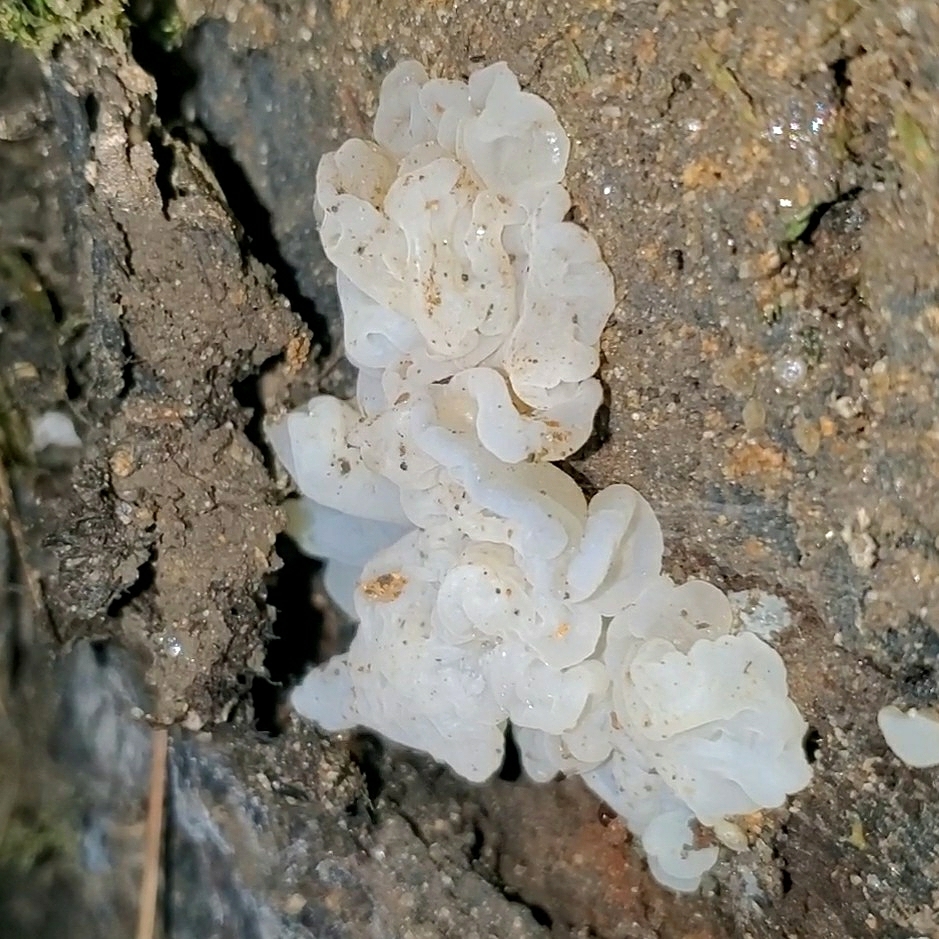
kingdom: Fungi
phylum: Basidiomycota
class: Agaricomycetes
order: Auriculariales
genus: Ductifera
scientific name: Ductifera pululahuana
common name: White jelly fungus
